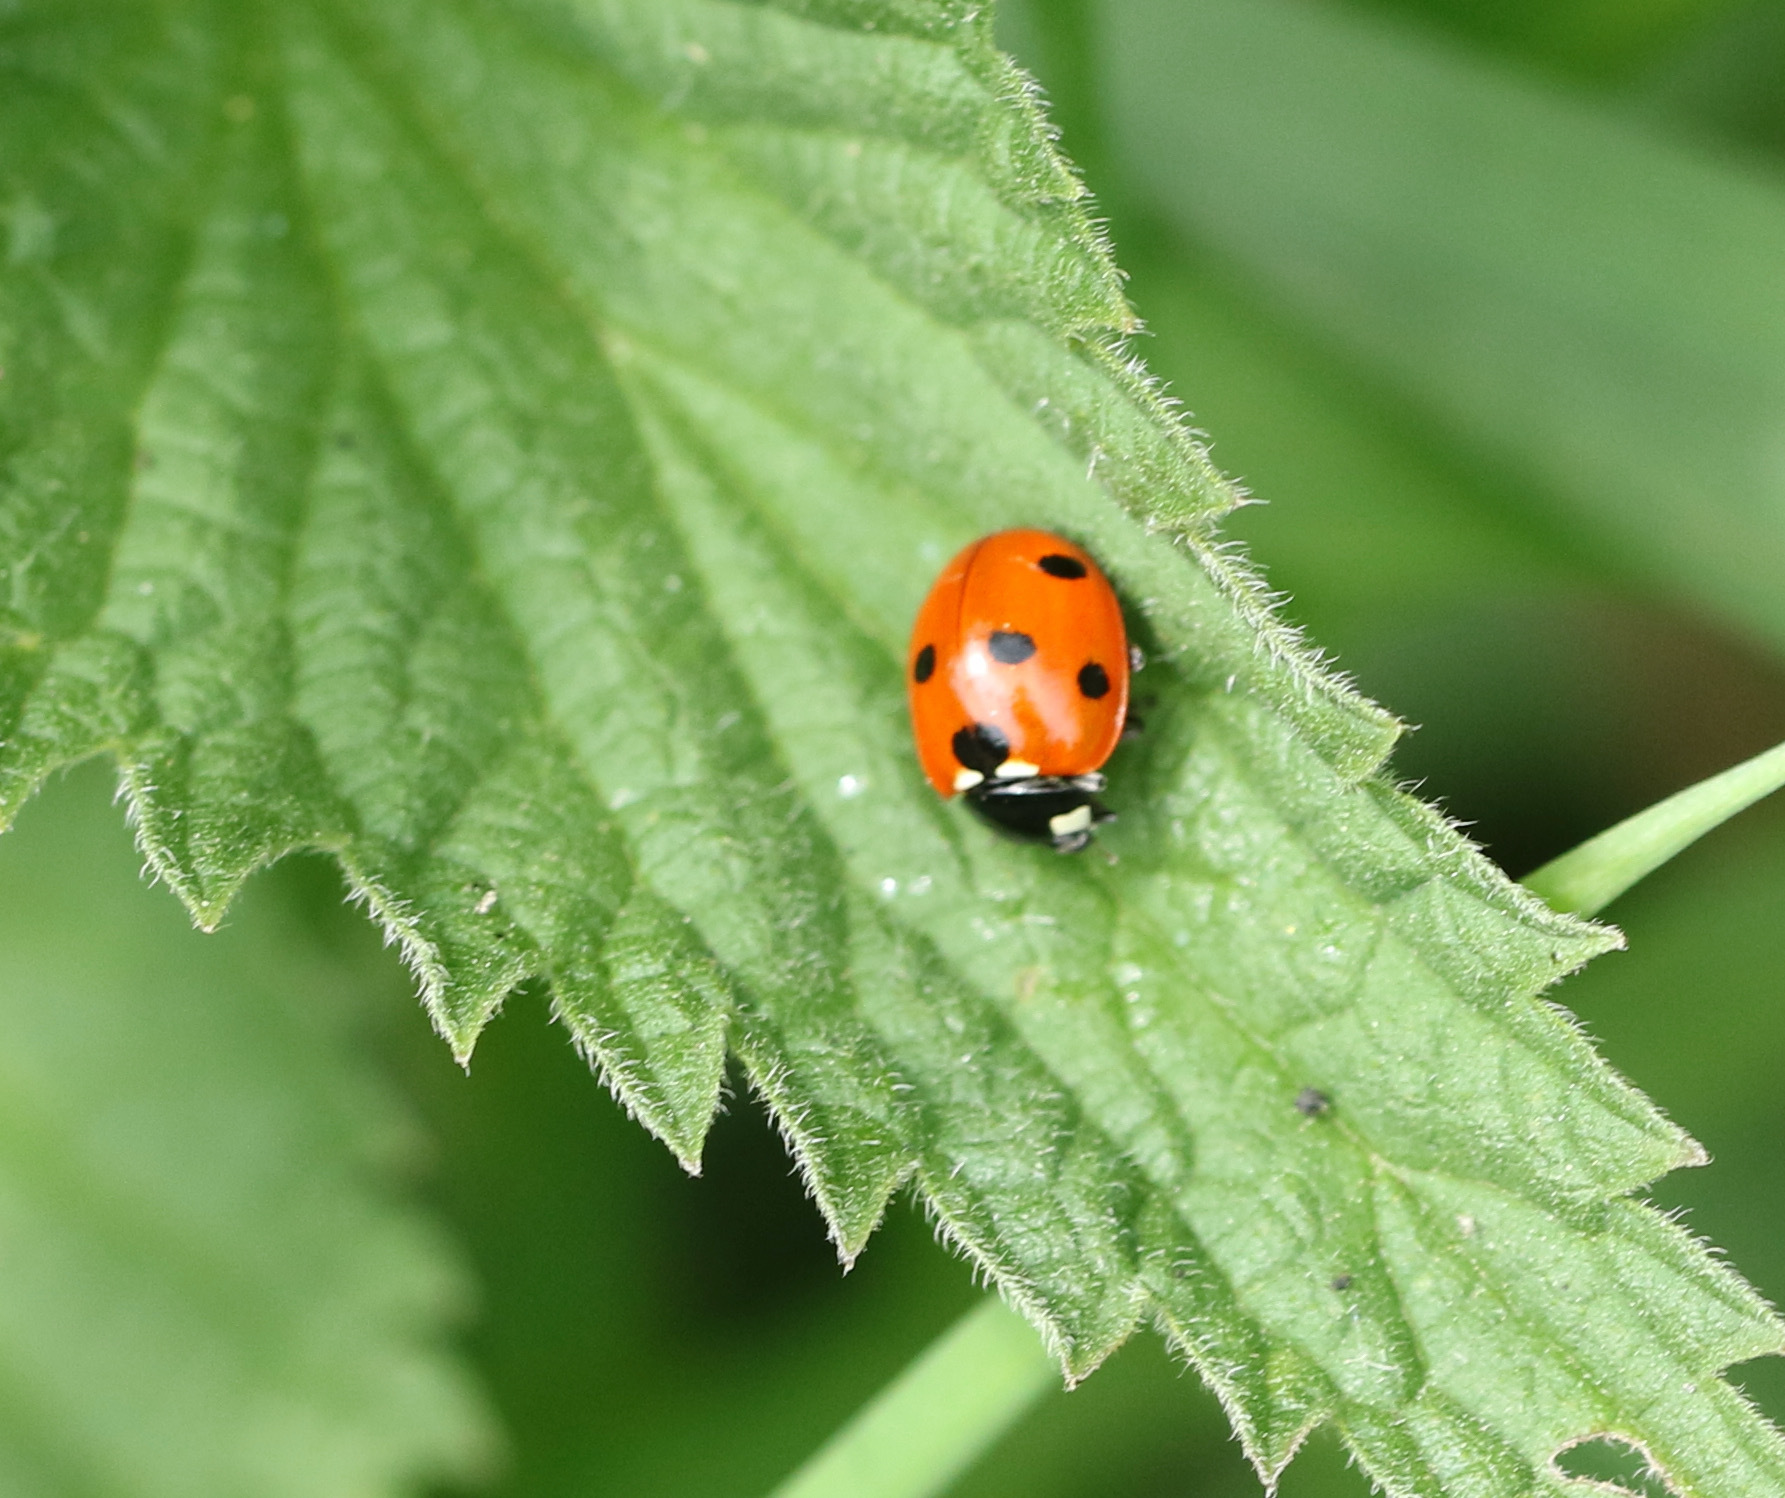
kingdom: Animalia
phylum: Arthropoda
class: Insecta
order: Coleoptera
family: Coccinellidae
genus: Coccinella
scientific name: Coccinella septempunctata
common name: Sevenspotted lady beetle
